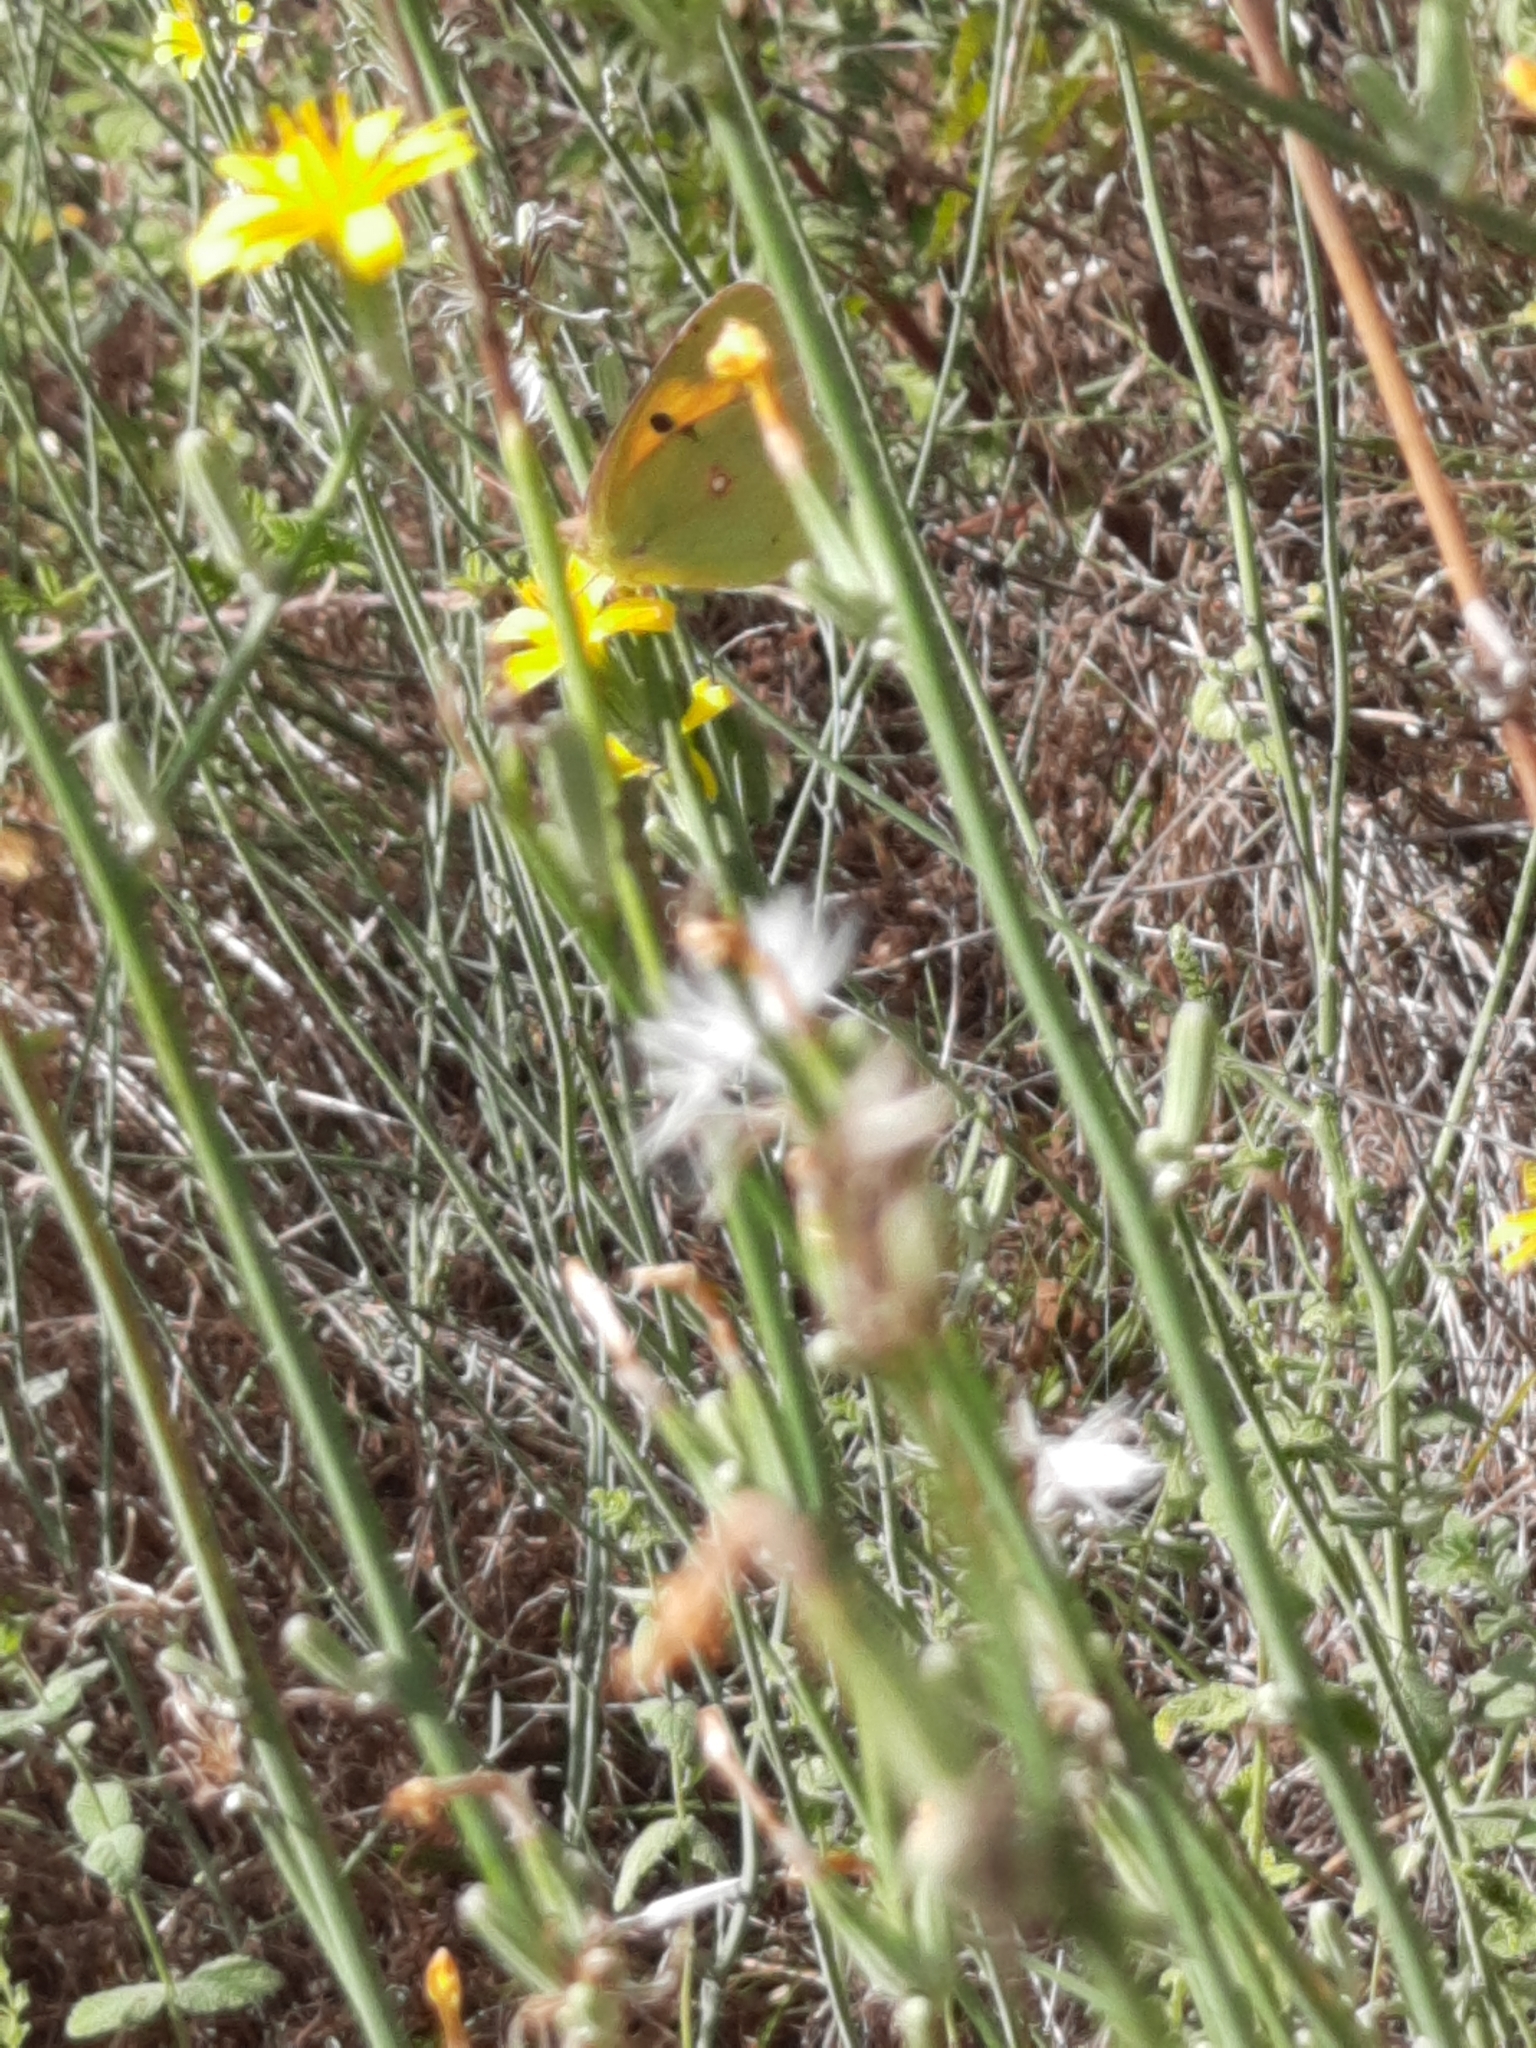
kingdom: Plantae
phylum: Tracheophyta
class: Magnoliopsida
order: Asterales
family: Asteraceae
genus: Chondrilla
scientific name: Chondrilla juncea
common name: Skeleton weed
